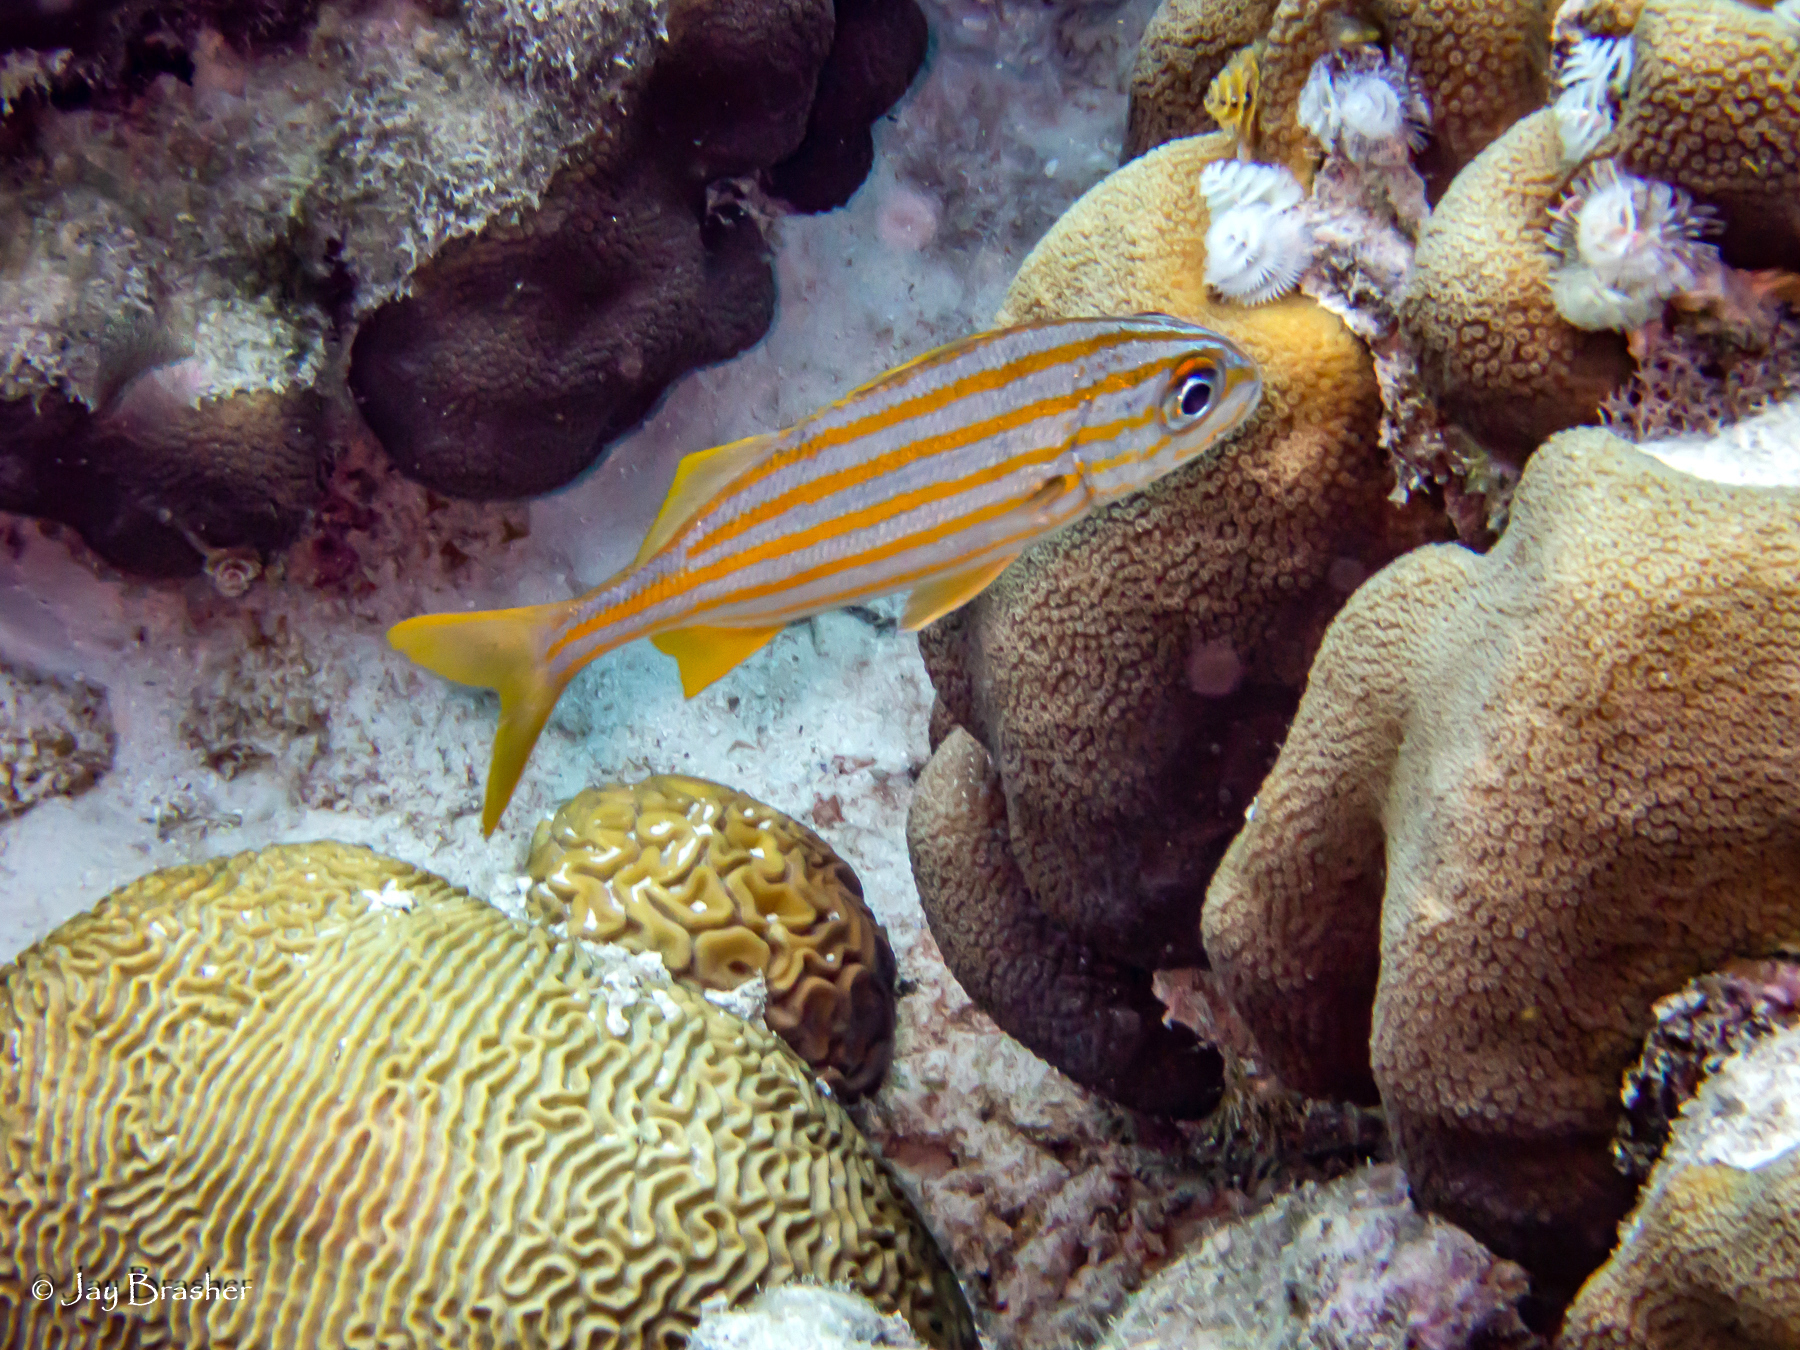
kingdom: Animalia
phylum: Chordata
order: Perciformes
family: Haemulidae
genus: Haemulon
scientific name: Haemulon chrysargyreum
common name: Smallmouth grunt
